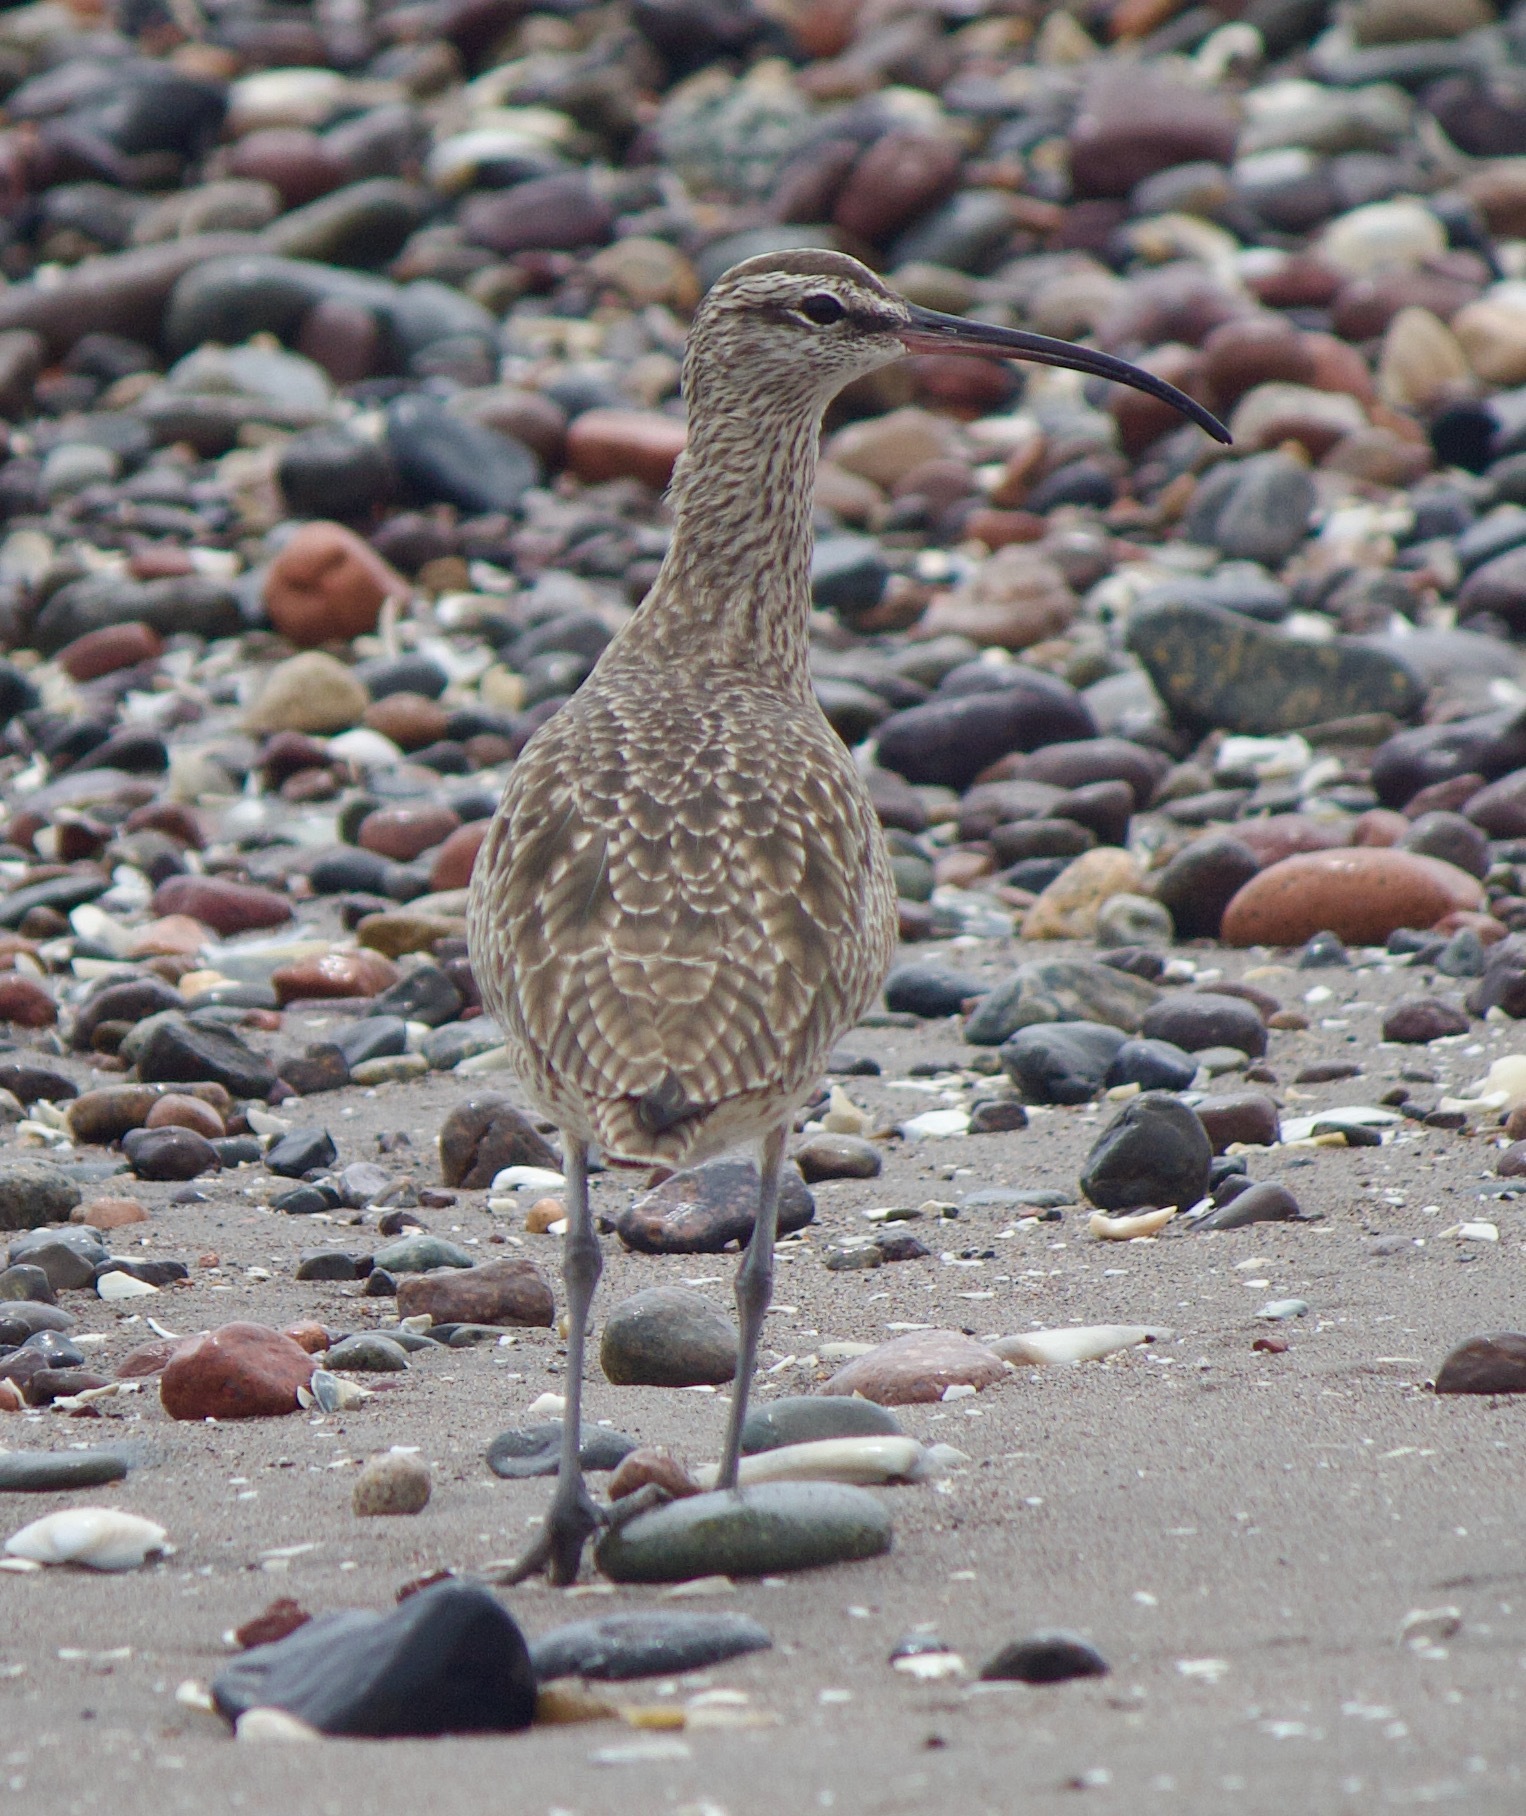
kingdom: Animalia
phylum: Chordata
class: Aves
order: Charadriiformes
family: Scolopacidae
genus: Numenius
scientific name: Numenius phaeopus
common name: Whimbrel
